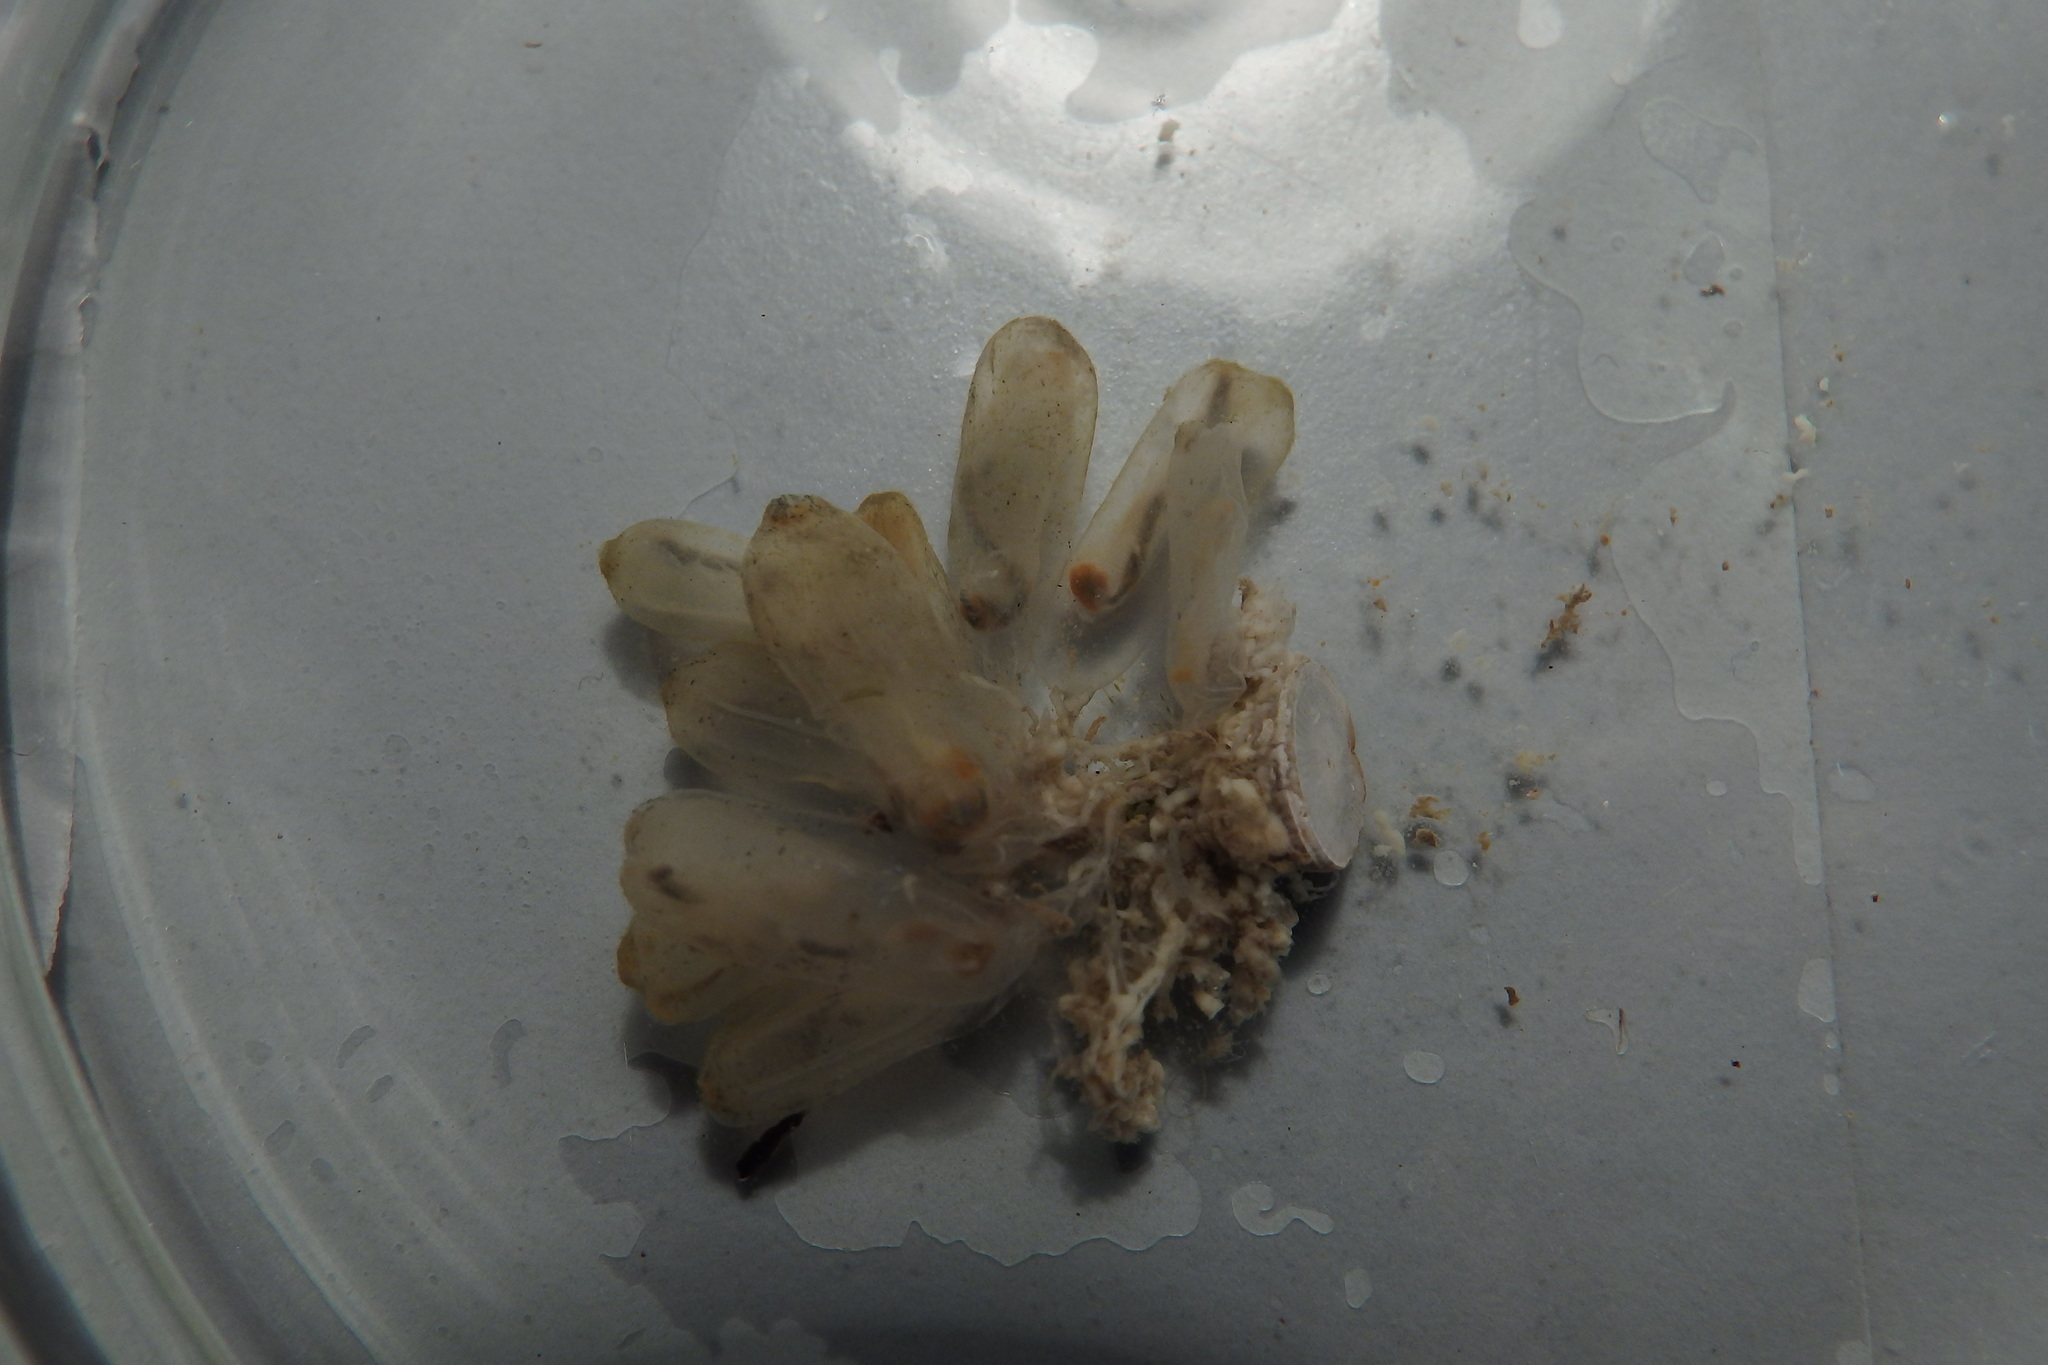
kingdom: Animalia
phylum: Chordata
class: Ascidiacea
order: Phlebobranchia
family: Perophoridae
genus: Ecteinascidia
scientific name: Ecteinascidia turbinata
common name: Mangrove tunicate
